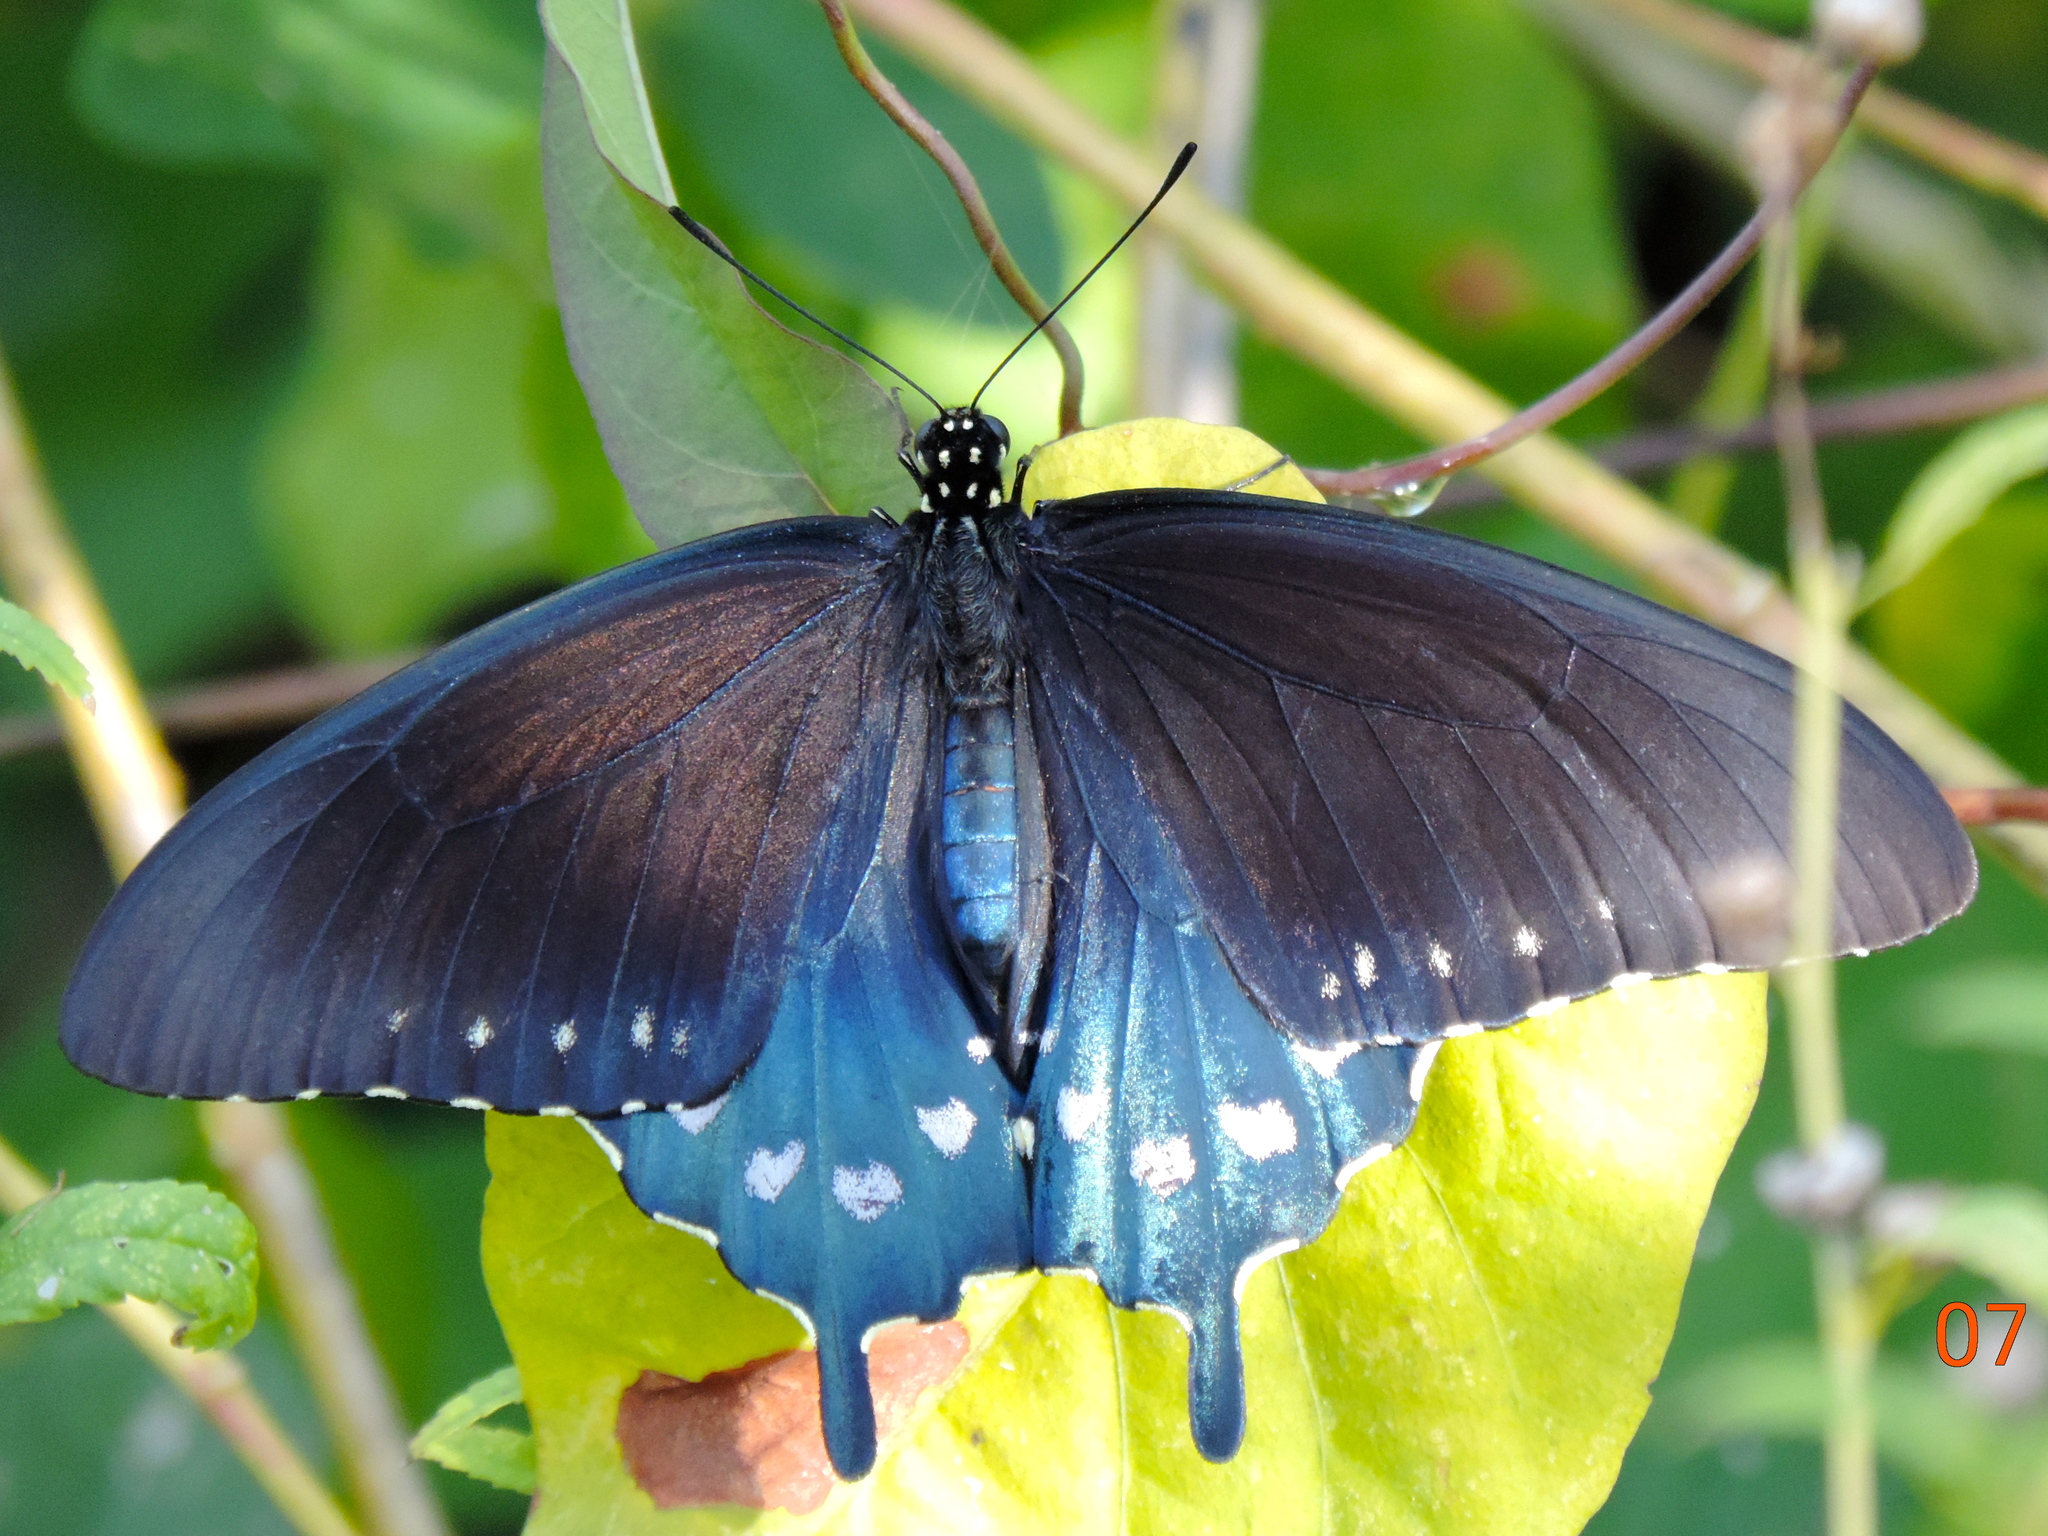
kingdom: Animalia
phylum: Arthropoda
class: Insecta
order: Lepidoptera
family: Papilionidae
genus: Battus
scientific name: Battus philenor
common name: Pipevine swallowtail
